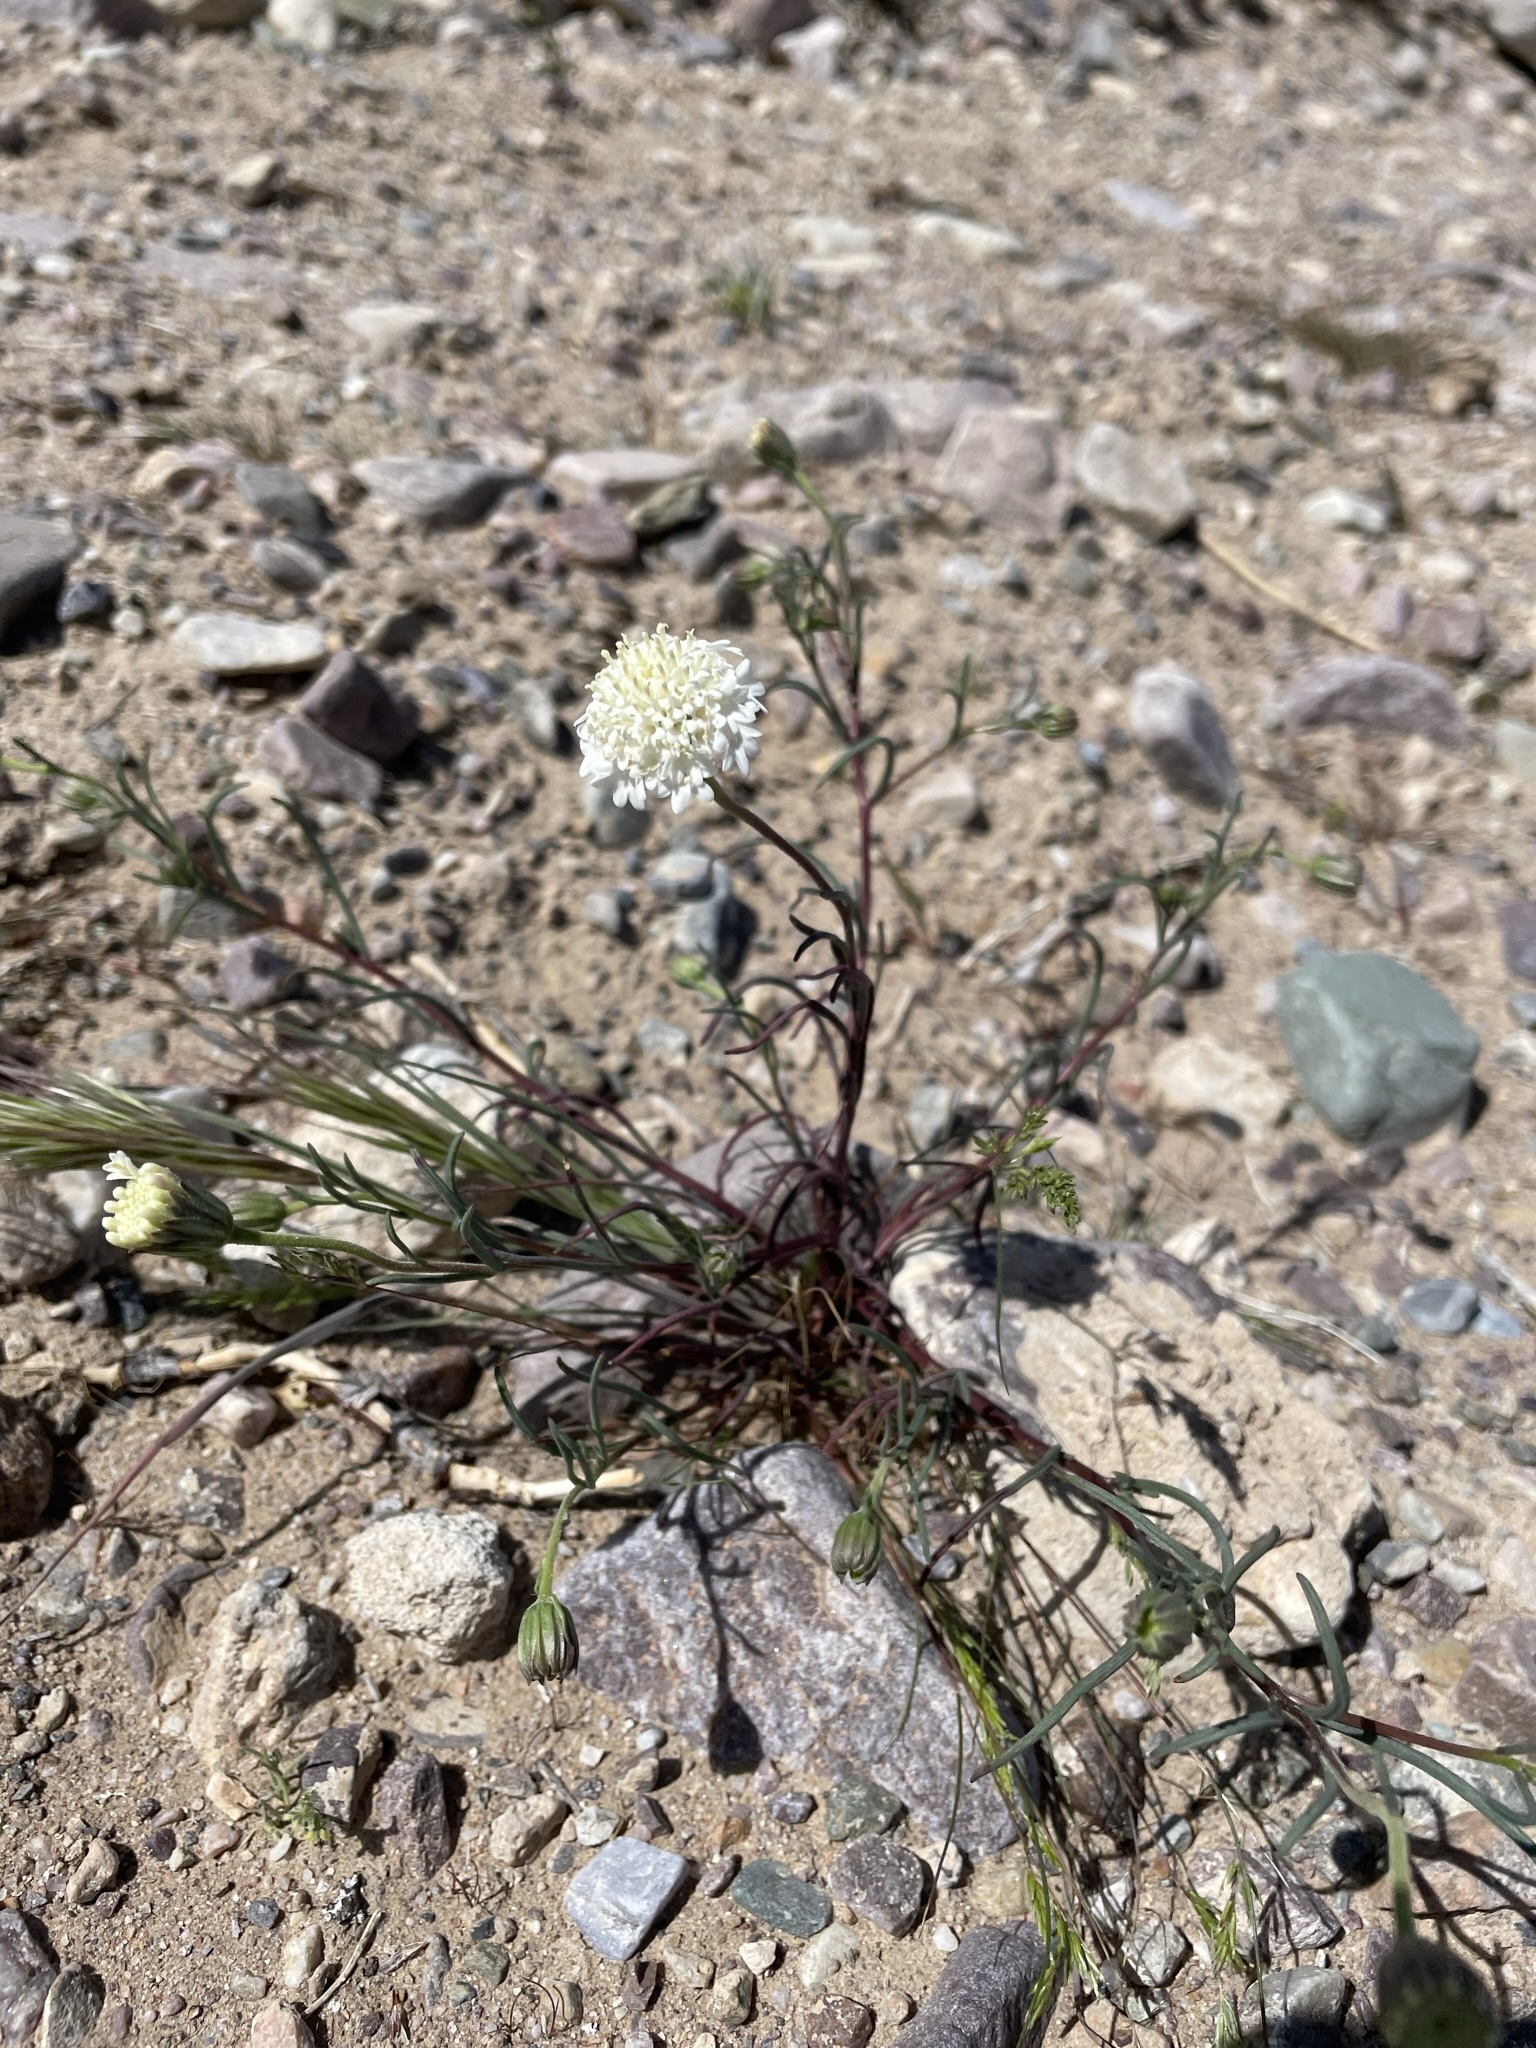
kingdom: Plantae
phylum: Tracheophyta
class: Magnoliopsida
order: Asterales
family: Asteraceae
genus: Chaenactis
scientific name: Chaenactis fremontii
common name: Fremont pincushion
